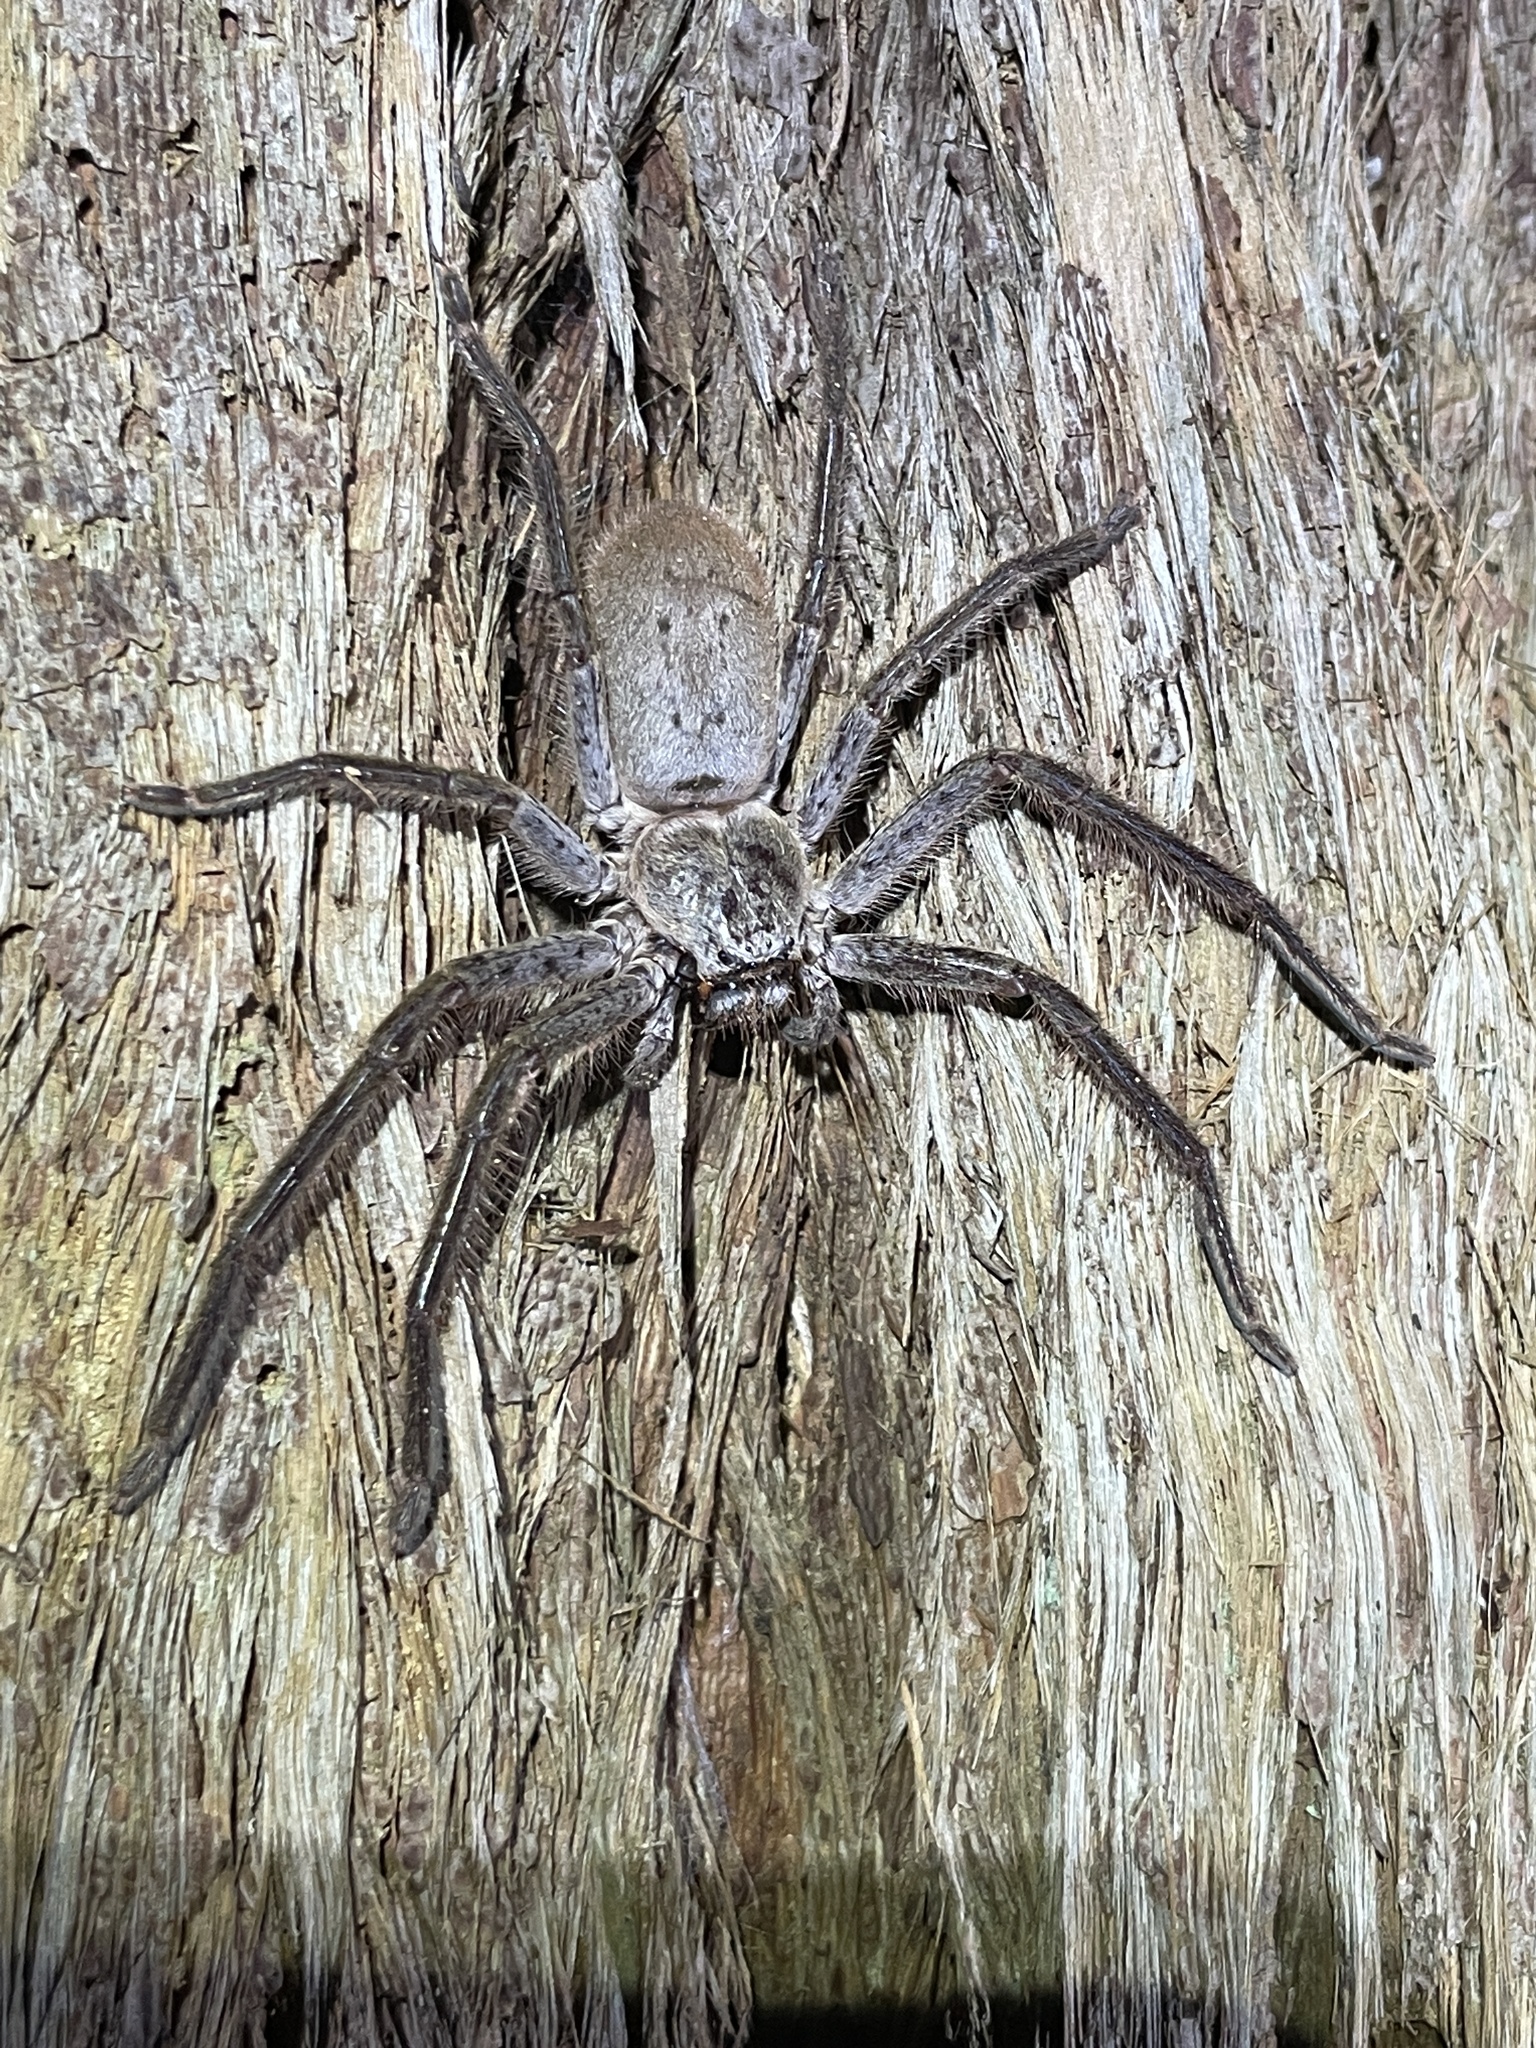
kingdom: Animalia
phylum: Arthropoda
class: Arachnida
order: Araneae
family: Sparassidae
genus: Isopeda
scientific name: Isopeda villosa
